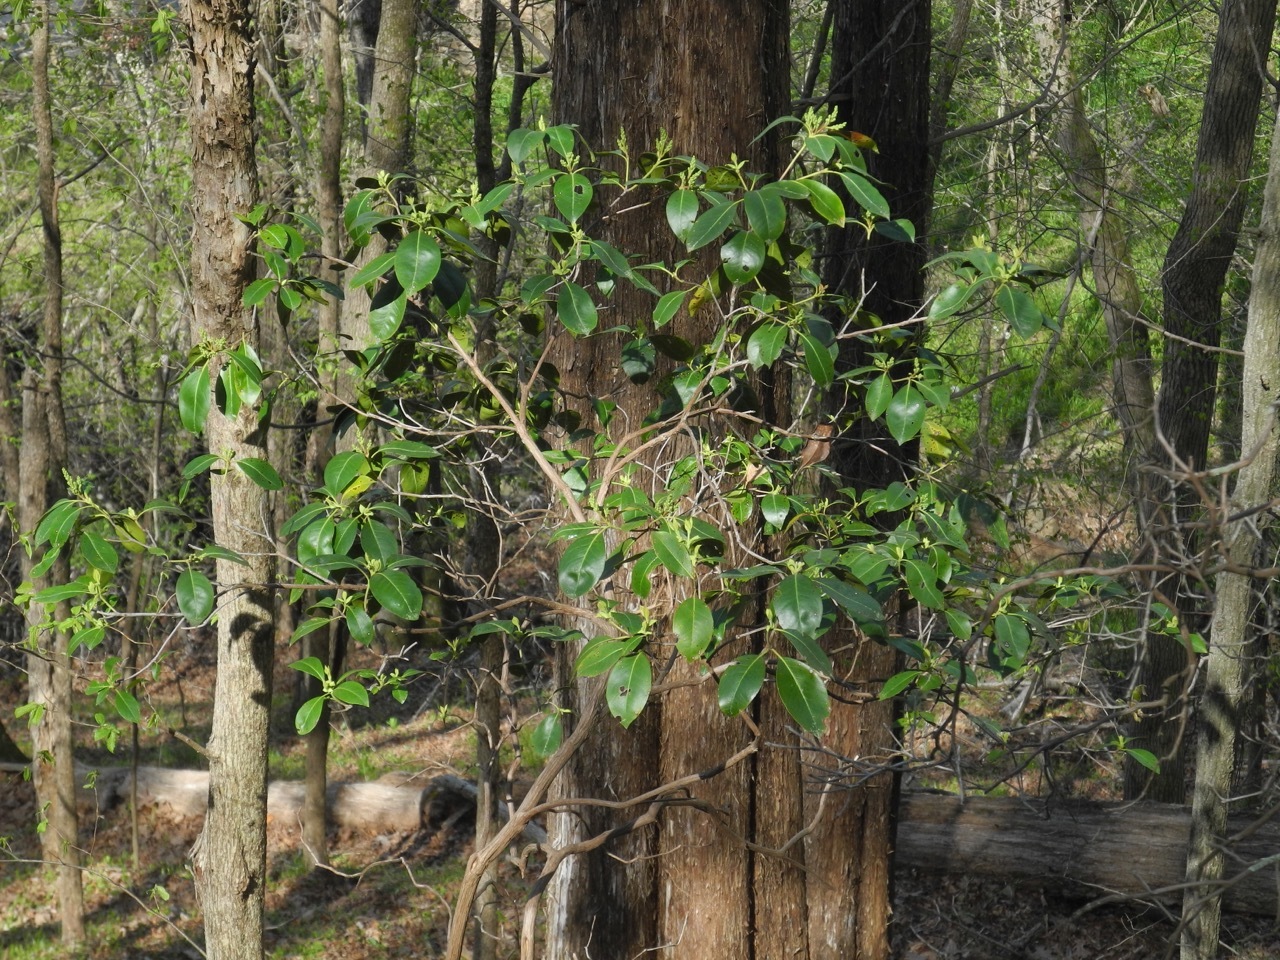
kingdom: Plantae
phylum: Tracheophyta
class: Magnoliopsida
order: Ericales
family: Ericaceae
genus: Kalmia
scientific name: Kalmia latifolia
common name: Mountain-laurel
